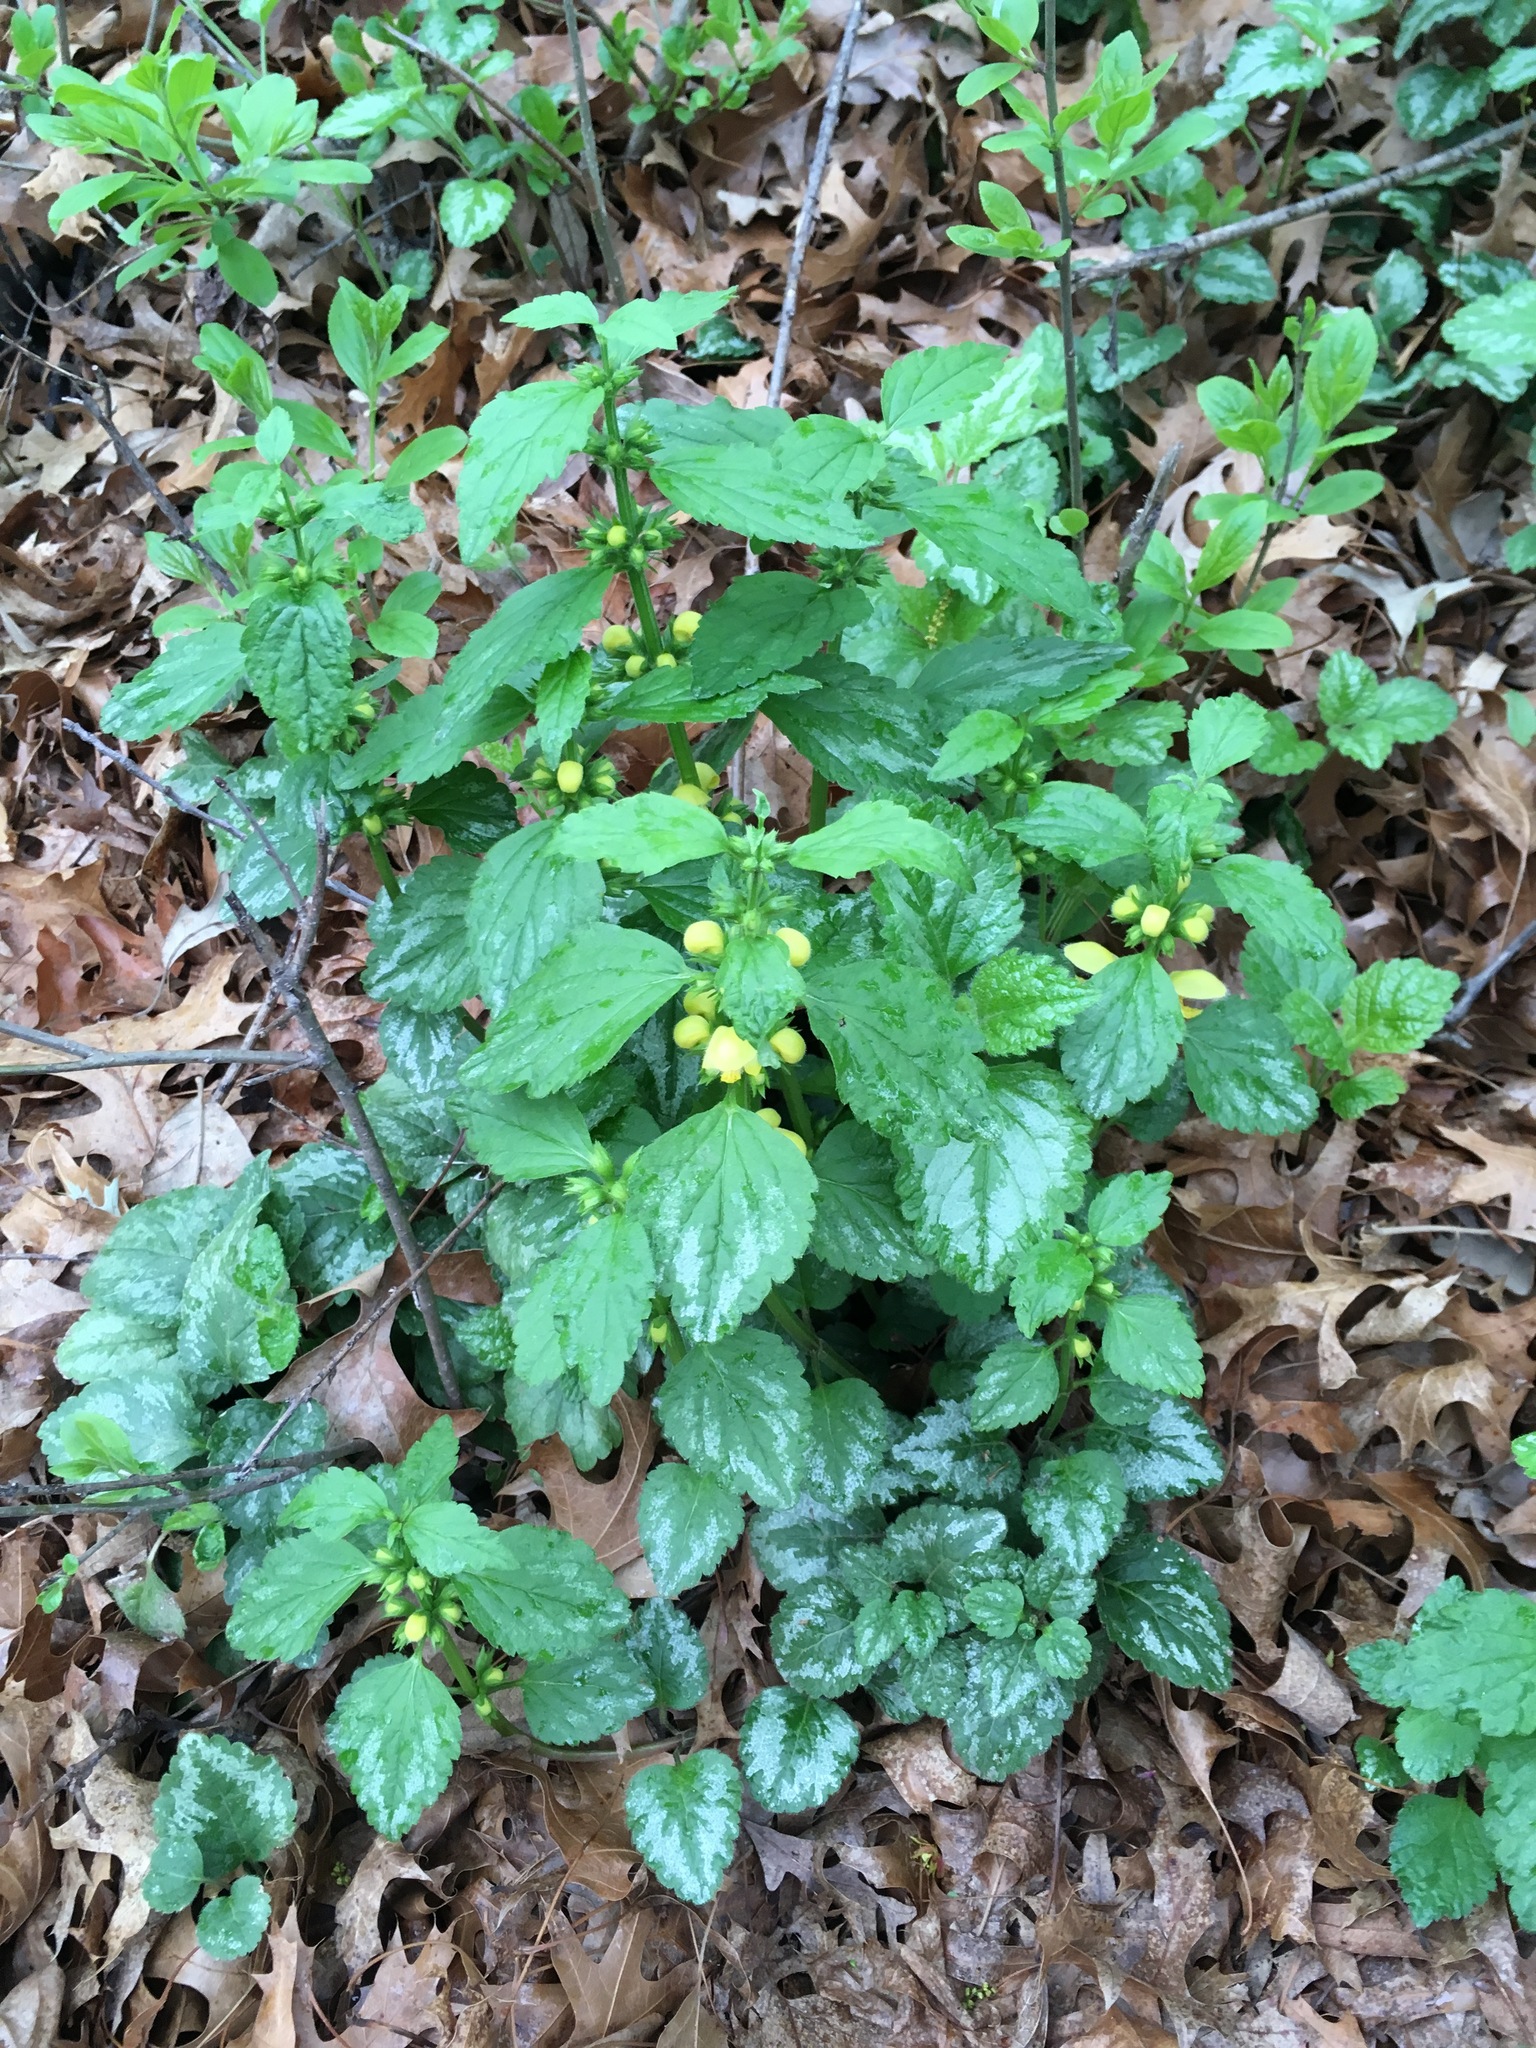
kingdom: Plantae
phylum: Tracheophyta
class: Magnoliopsida
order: Lamiales
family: Lamiaceae
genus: Lamium
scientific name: Lamium galeobdolon
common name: Yellow archangel
